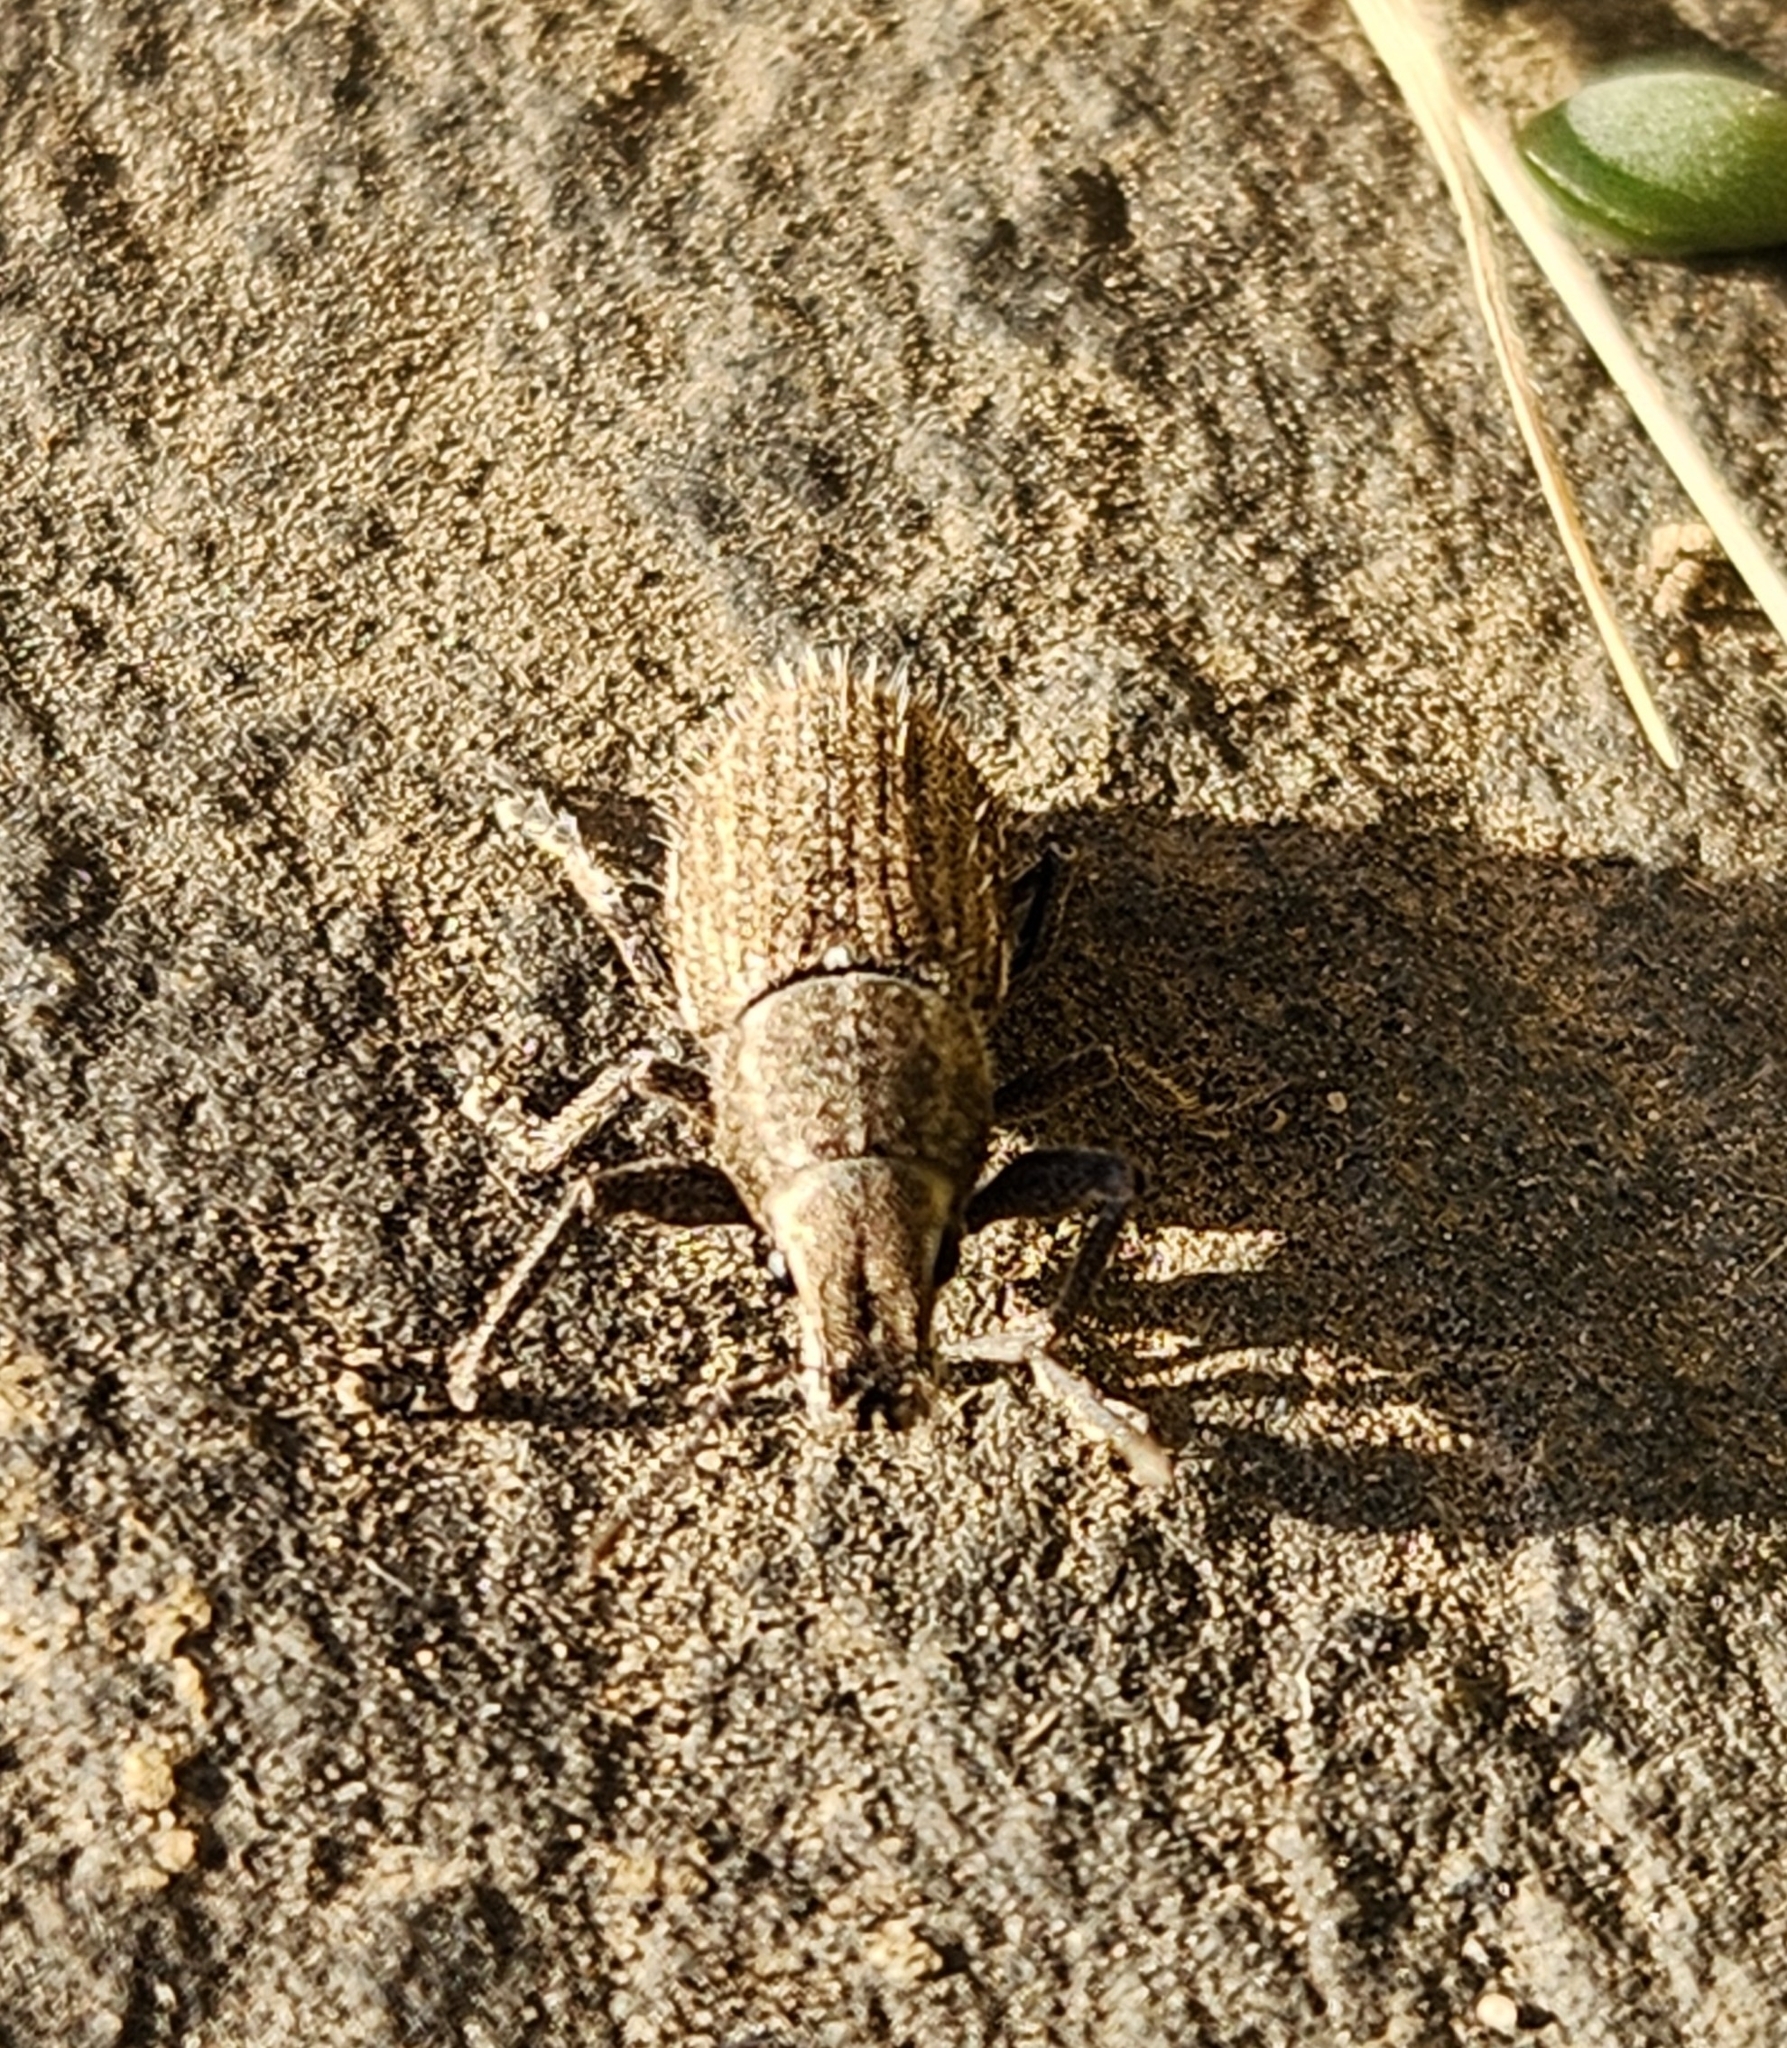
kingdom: Animalia
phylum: Arthropoda
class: Insecta
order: Coleoptera
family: Curculionidae
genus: Naupactus
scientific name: Naupactus leucoloma
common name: Whitefringed beetle
